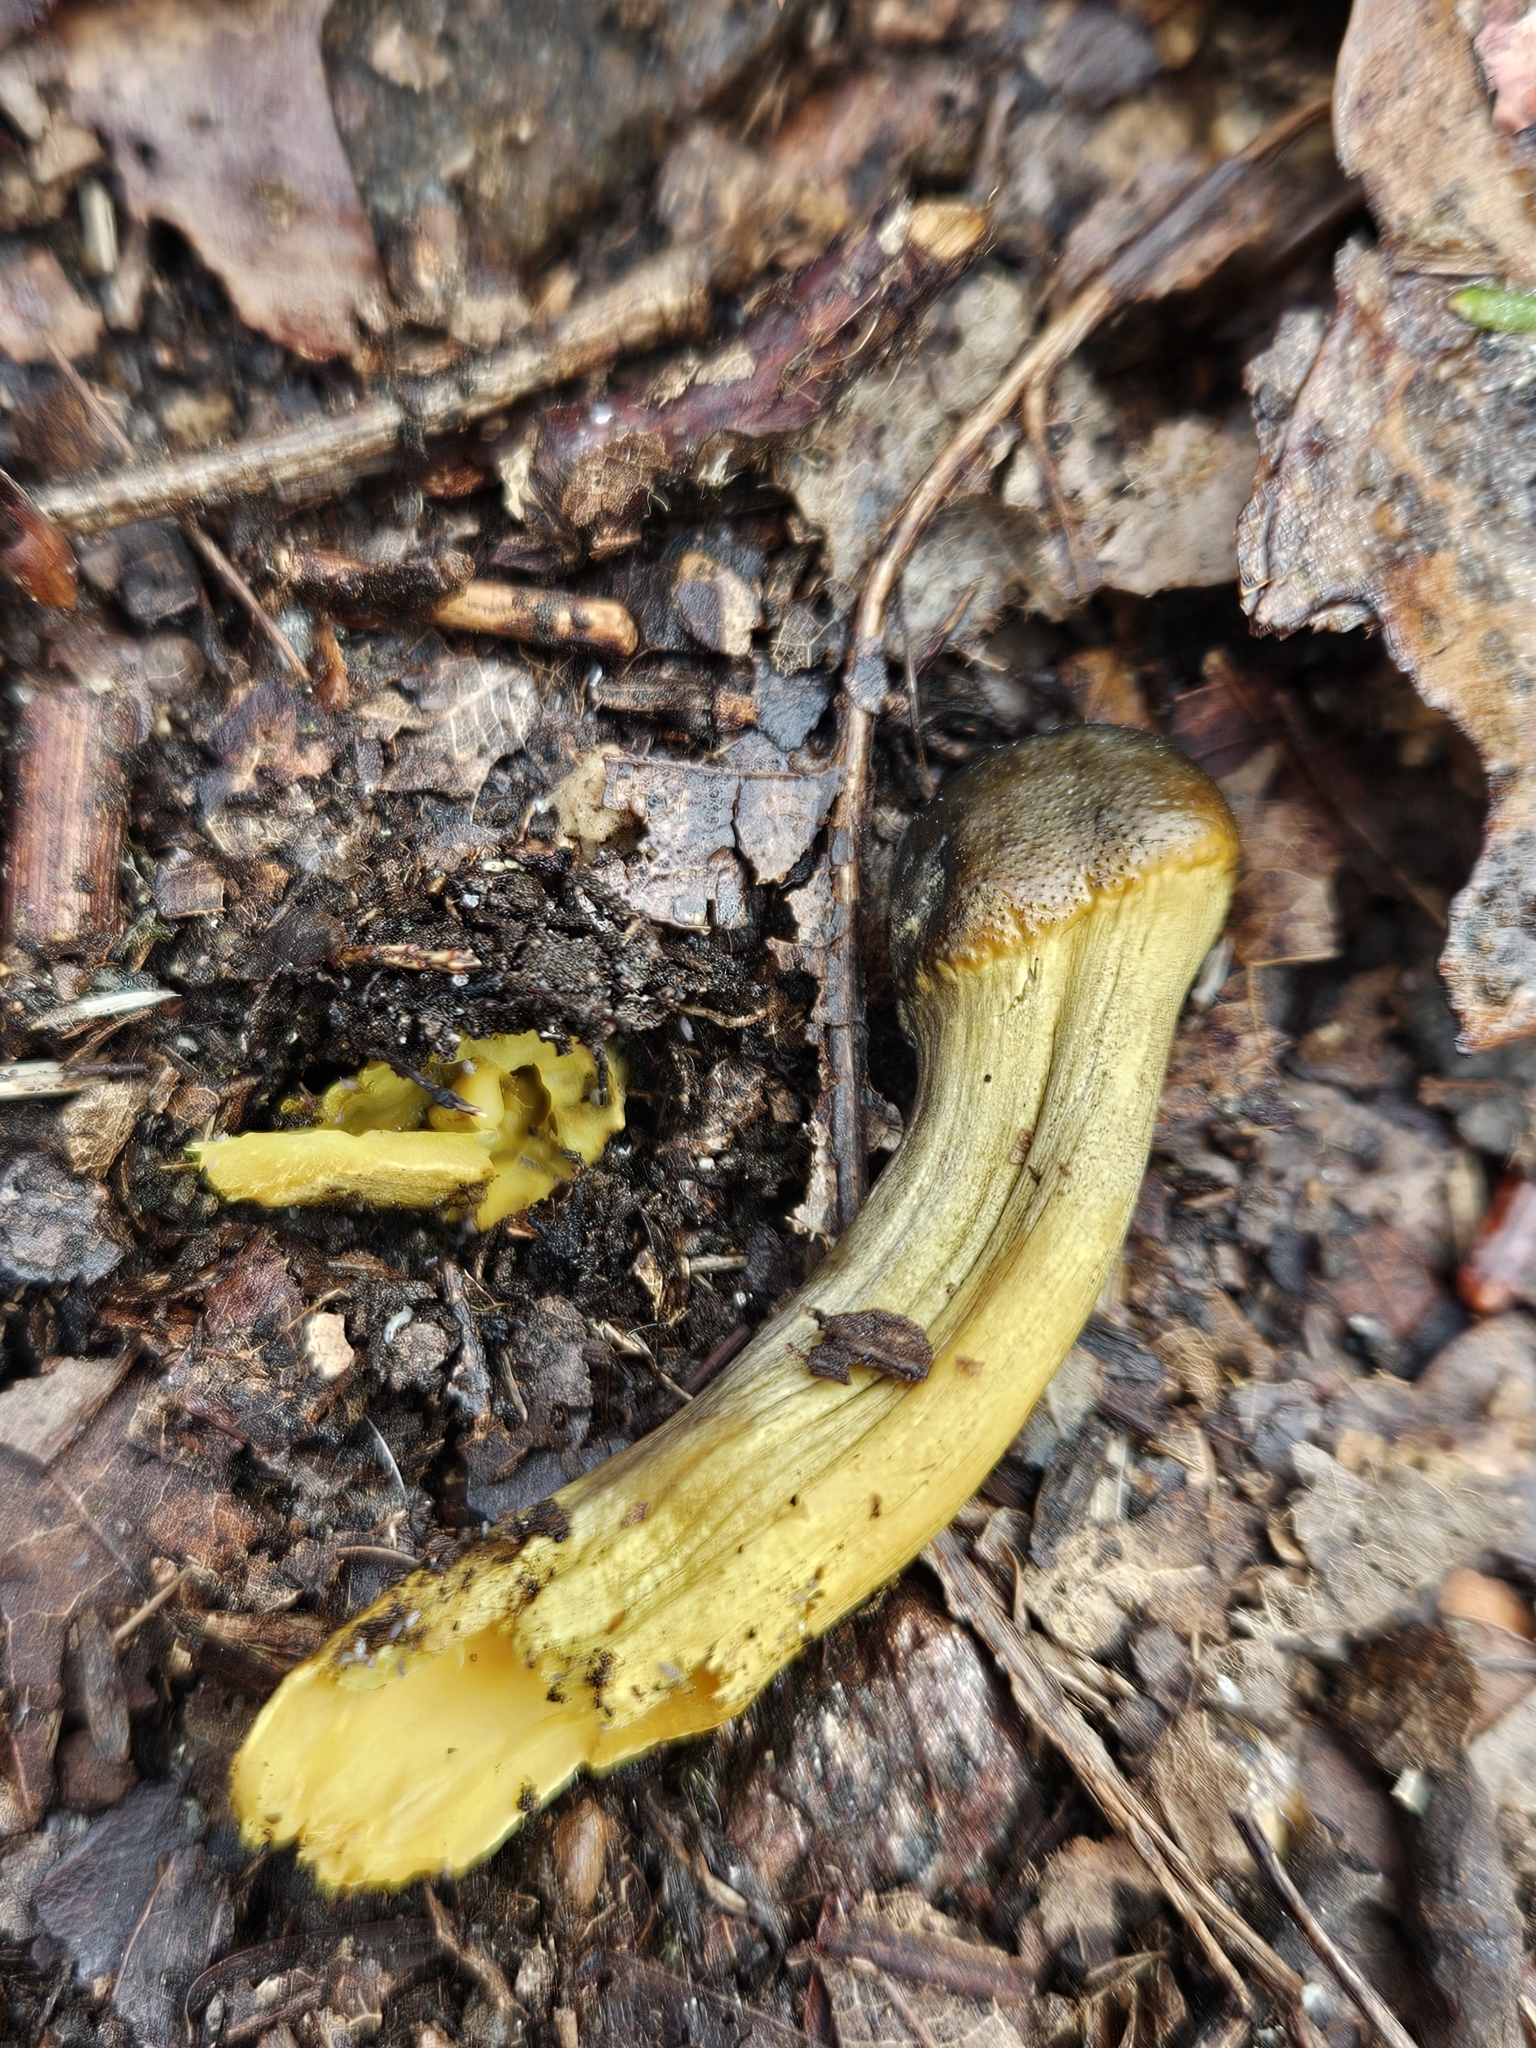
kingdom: Fungi
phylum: Ascomycota
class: Sordariomycetes
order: Hypocreales
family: Ophiocordycipitaceae
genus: Tolypocladium
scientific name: Tolypocladium capitatum
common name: Capitate truffleclub
